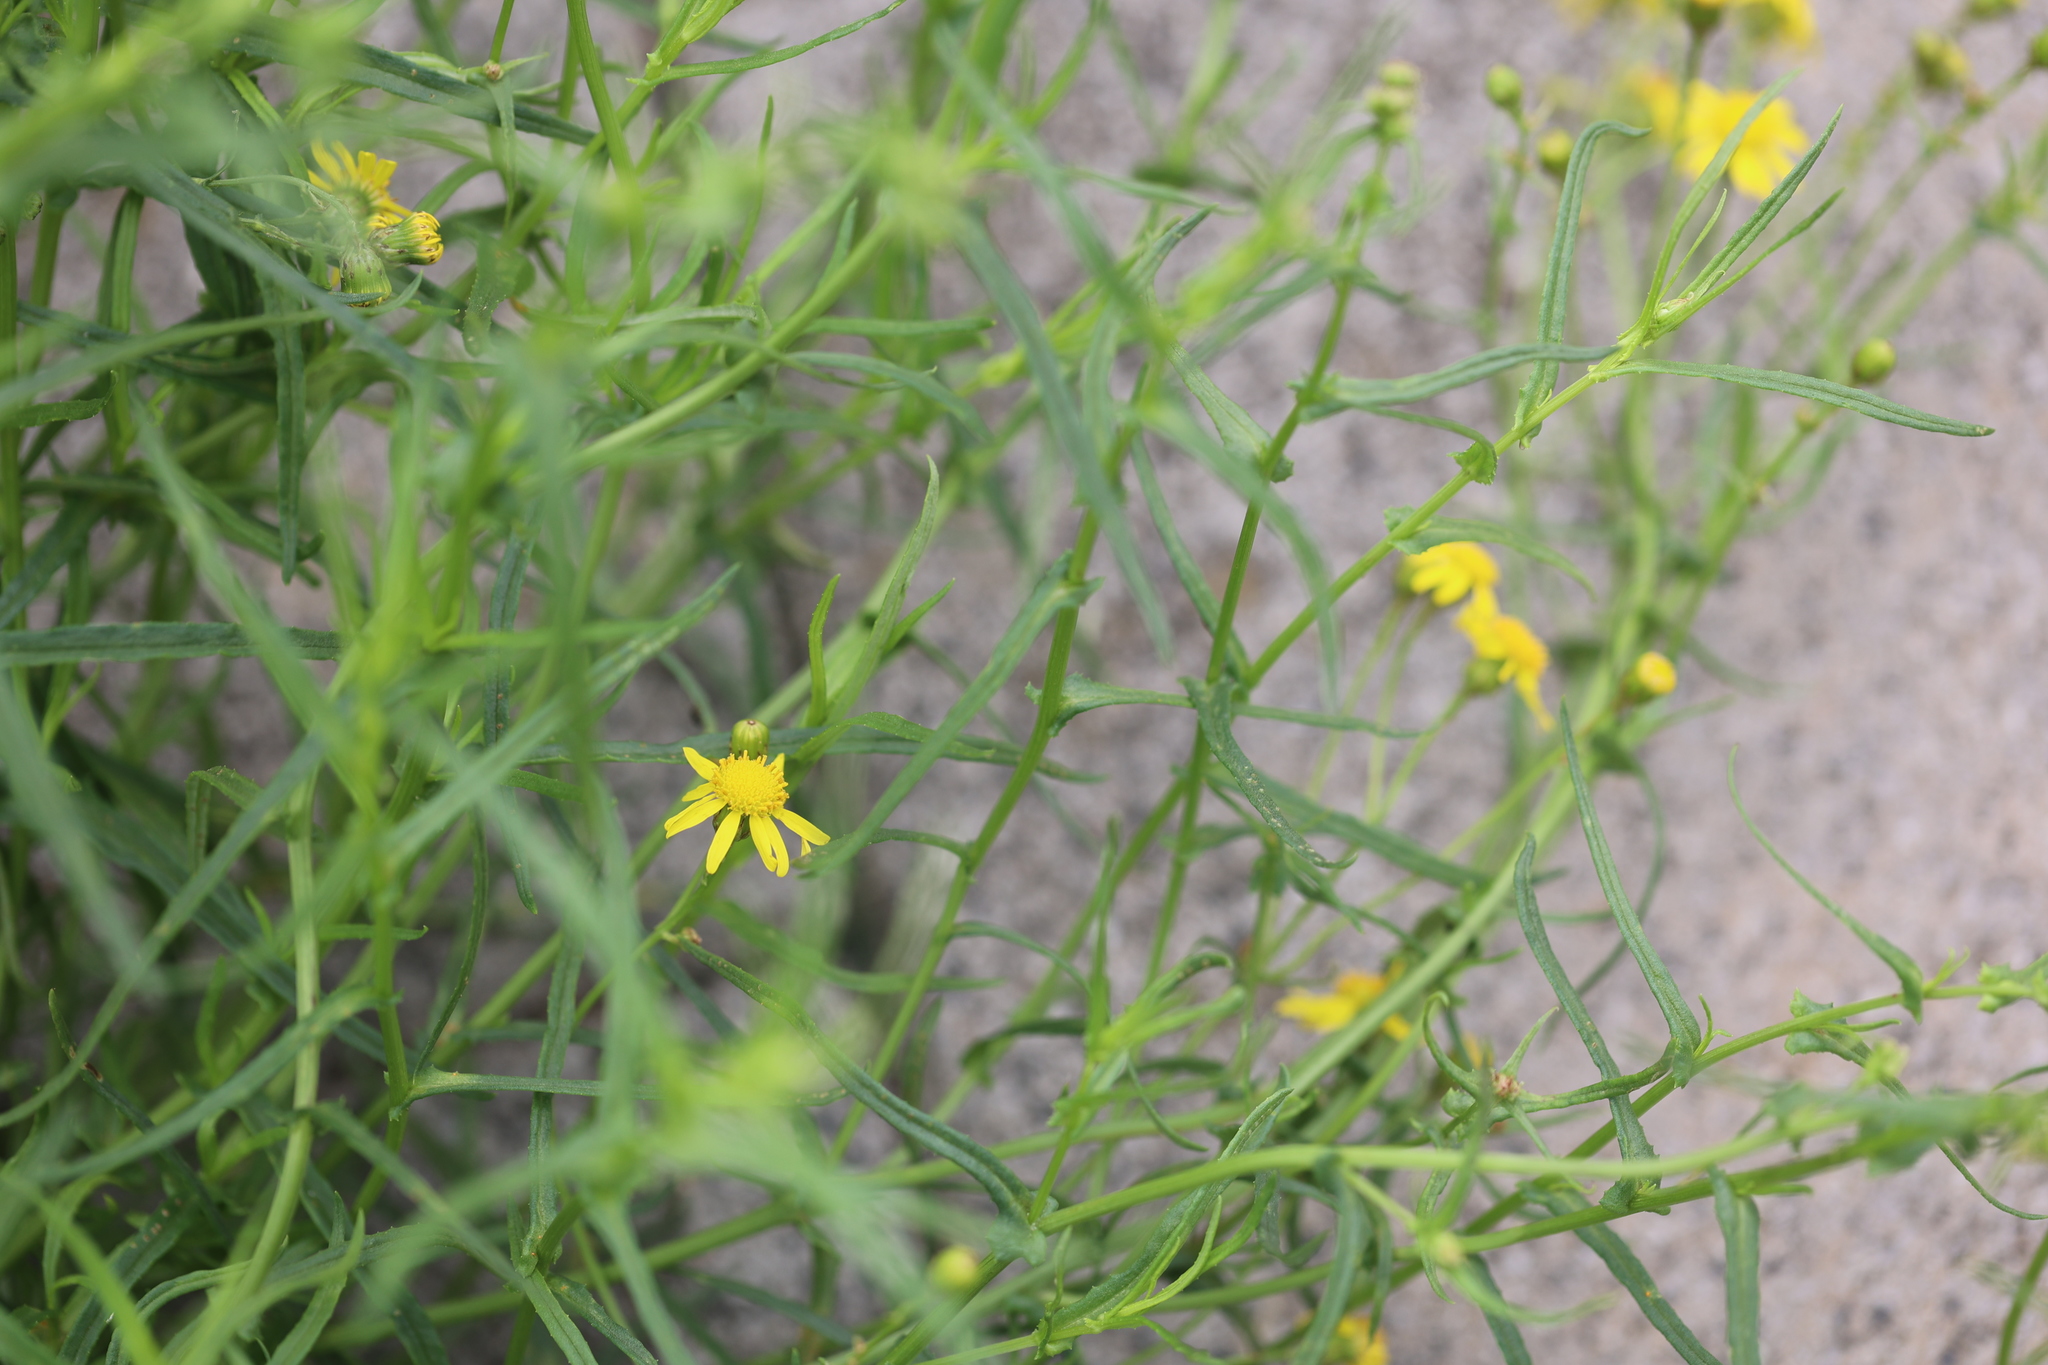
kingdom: Plantae
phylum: Tracheophyta
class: Magnoliopsida
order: Asterales
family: Asteraceae
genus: Senecio
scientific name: Senecio inaequidens
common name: Narrow-leaved ragwort
